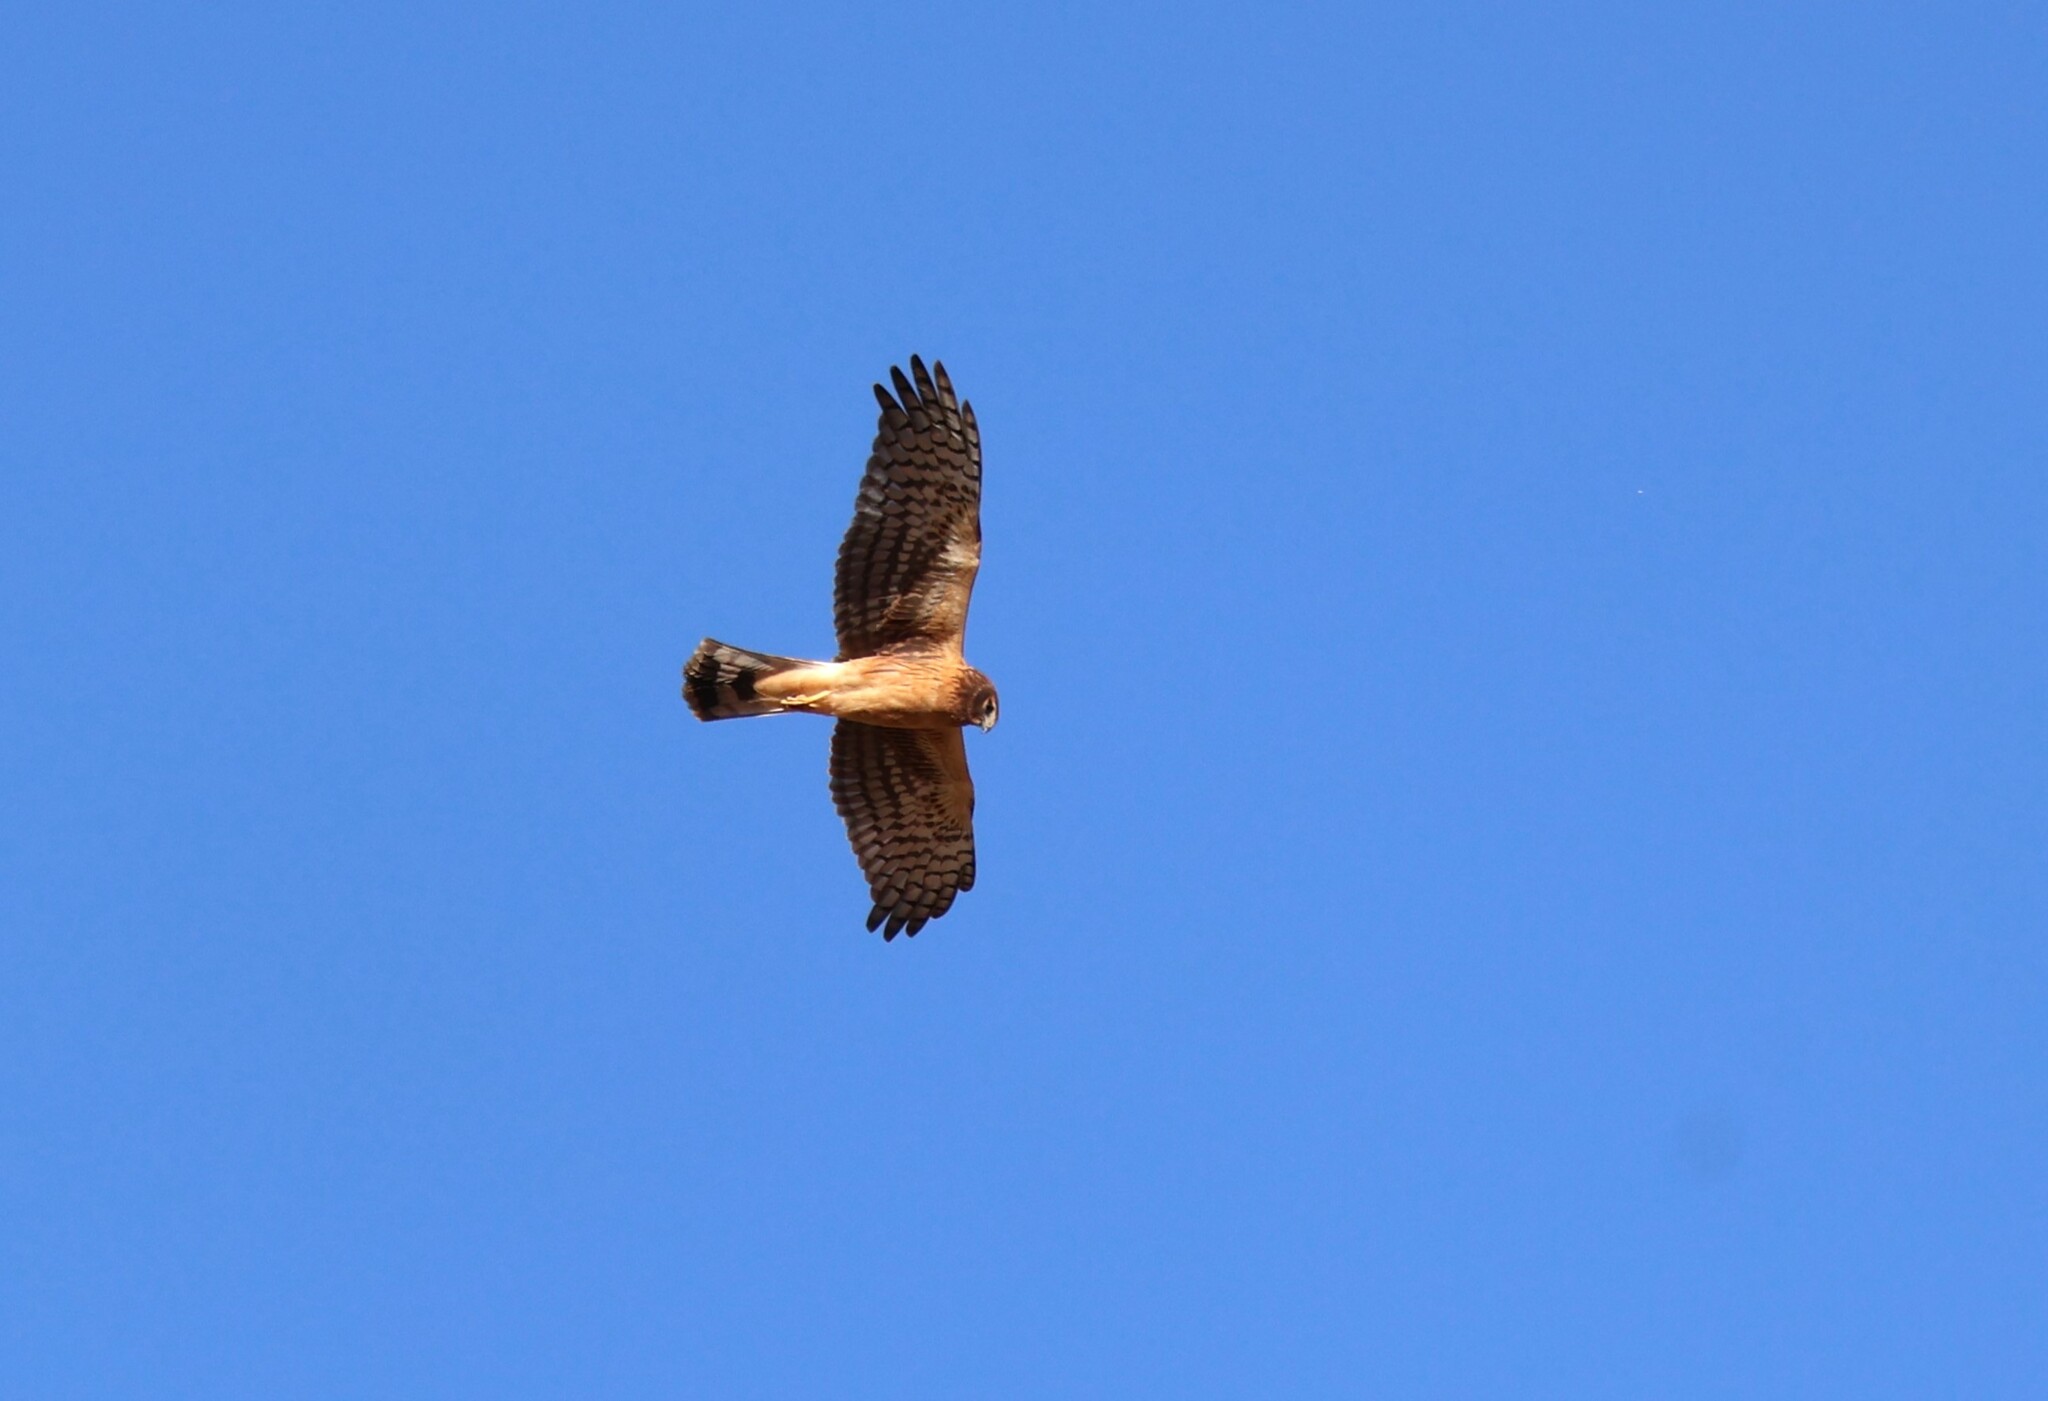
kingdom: Animalia
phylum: Chordata
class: Aves
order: Accipitriformes
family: Accipitridae
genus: Circus
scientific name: Circus cyaneus
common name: Hen harrier
